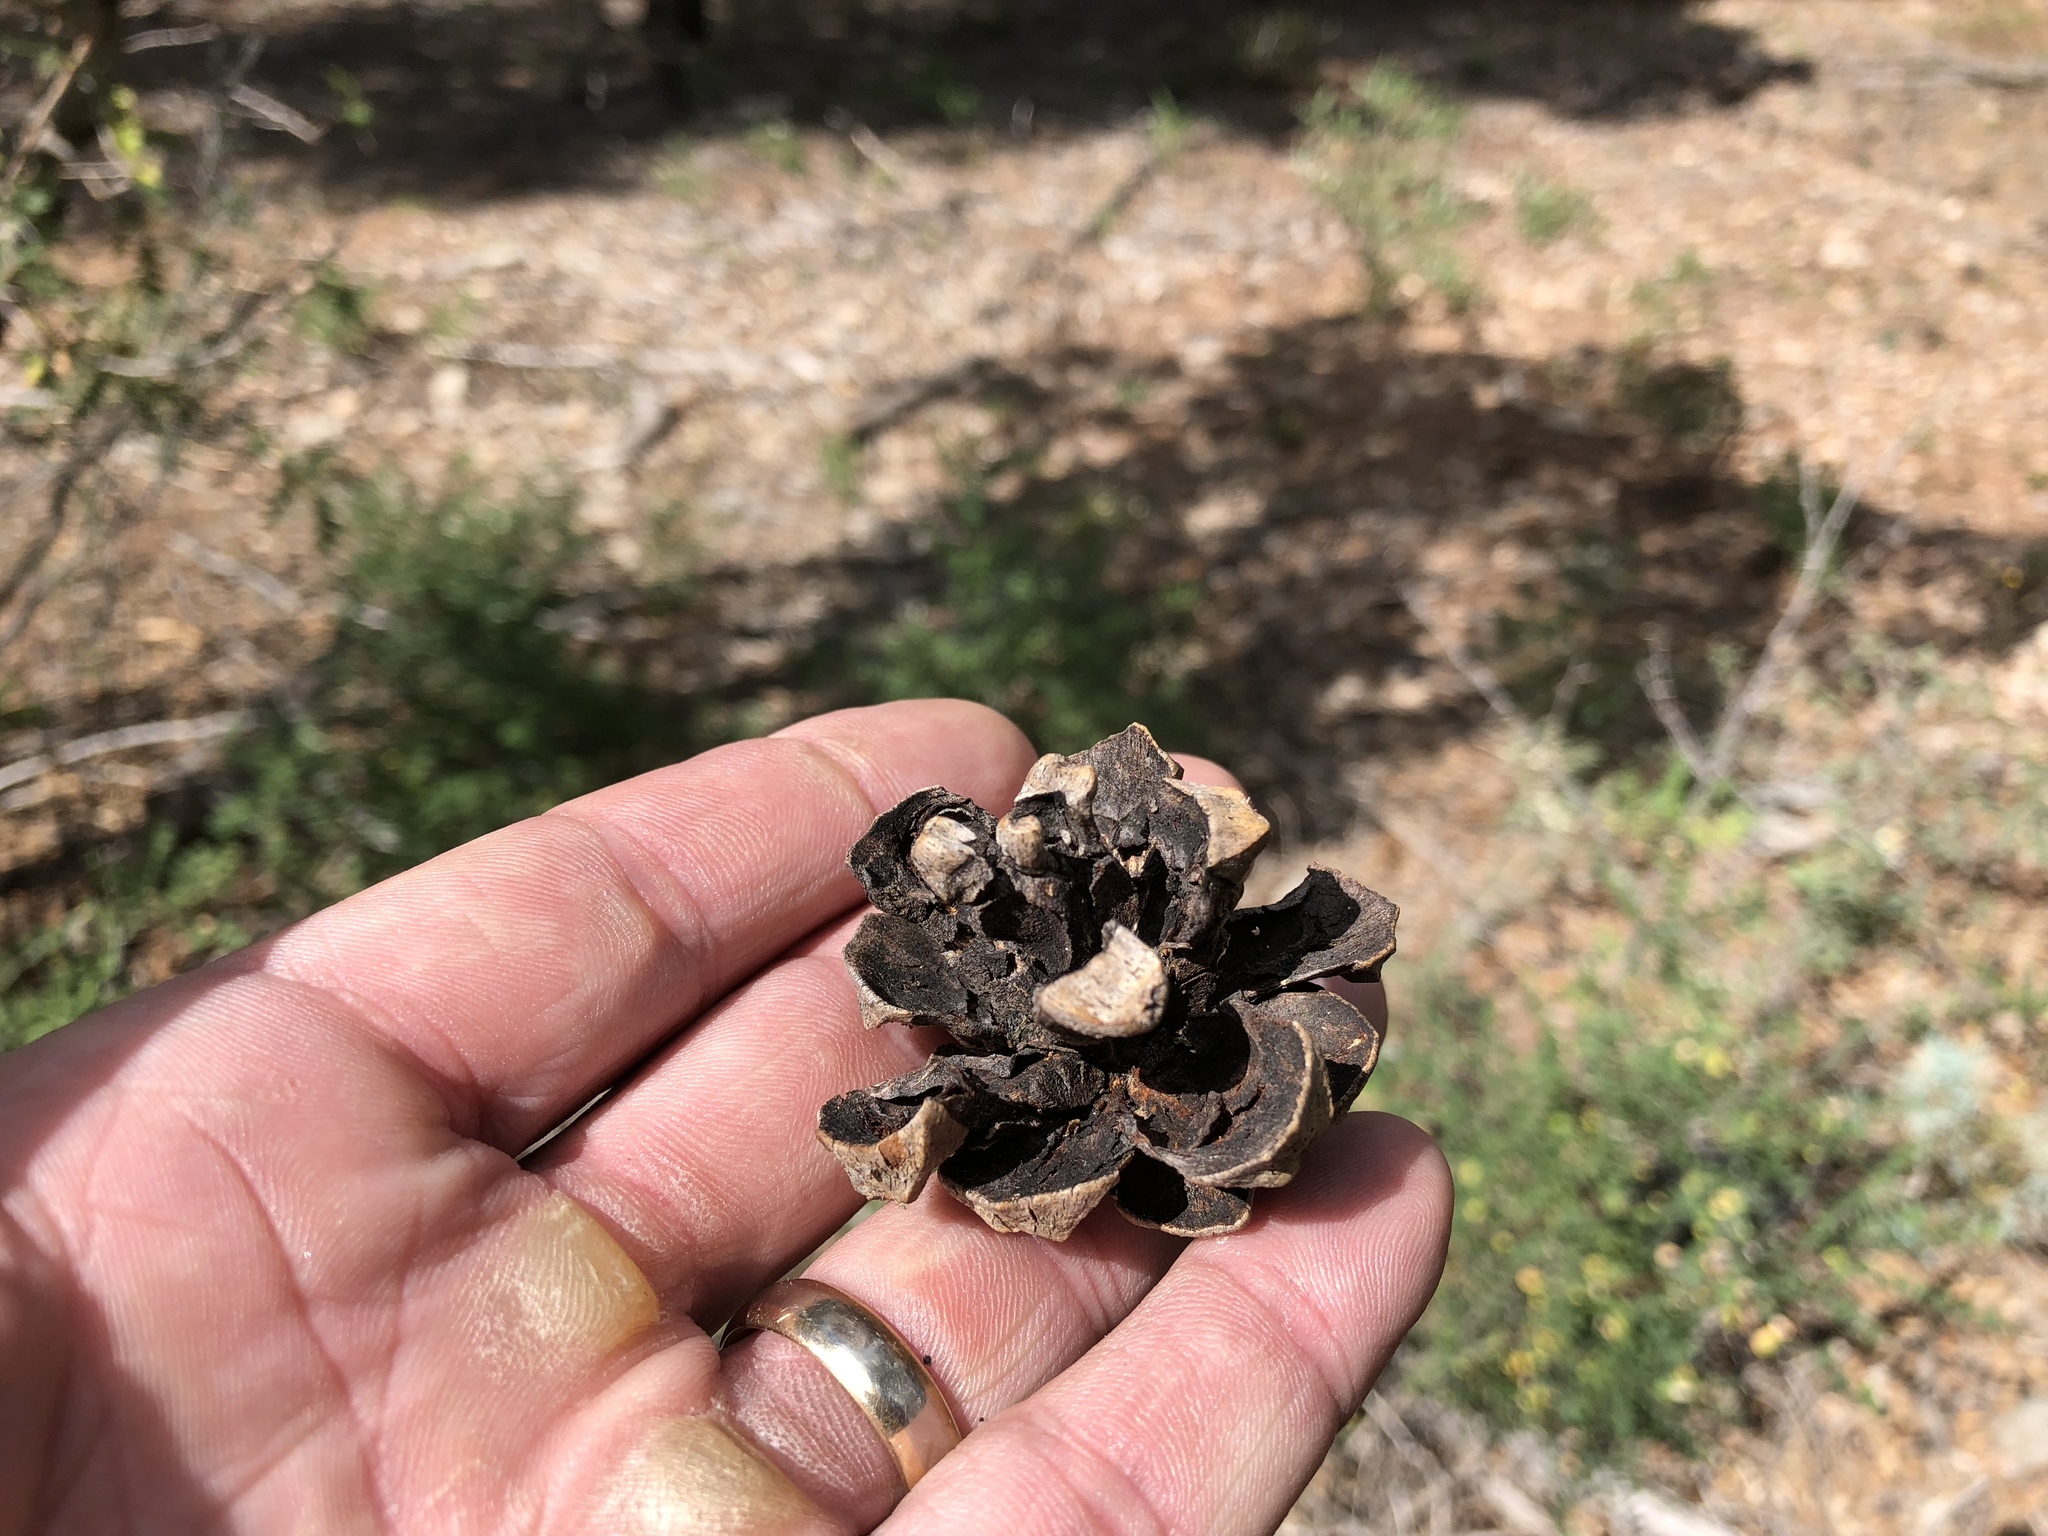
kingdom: Plantae
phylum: Tracheophyta
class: Pinopsida
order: Pinales
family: Pinaceae
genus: Pinus
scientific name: Pinus edulis
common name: Colorado pinyon
